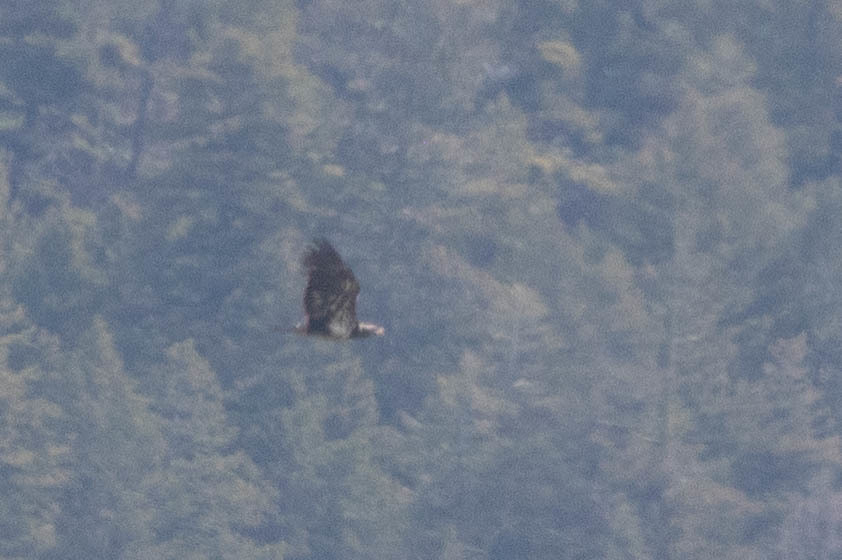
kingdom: Animalia
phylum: Chordata
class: Aves
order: Accipitriformes
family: Accipitridae
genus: Haliaeetus
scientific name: Haliaeetus leucocephalus
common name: Bald eagle
